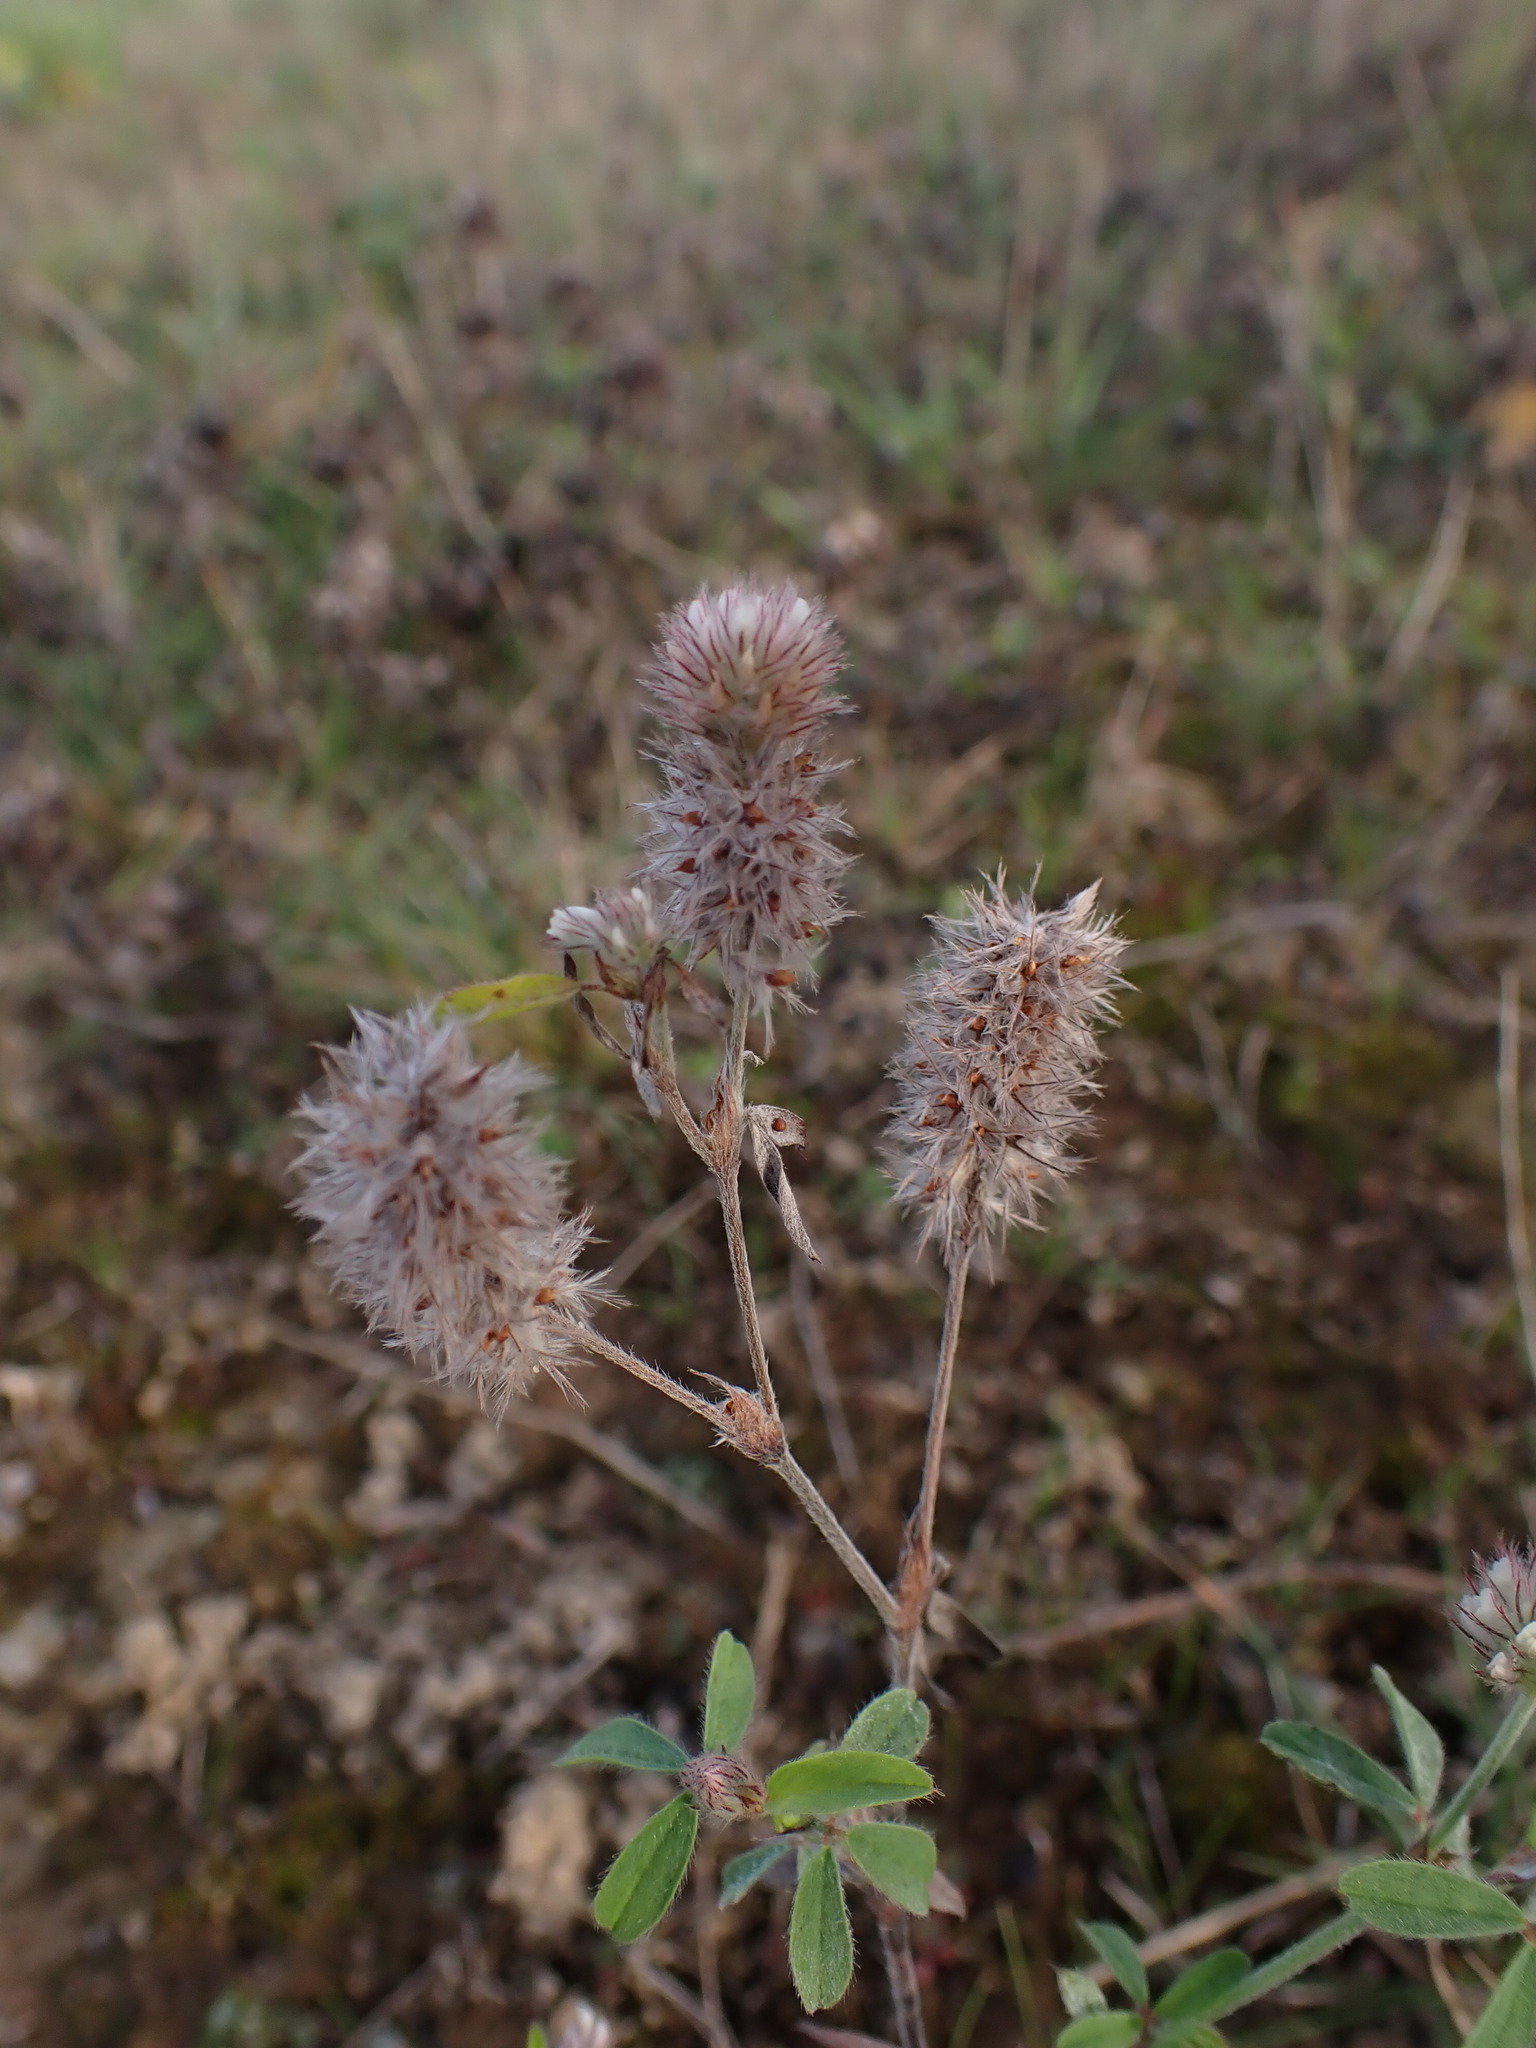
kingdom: Plantae
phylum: Tracheophyta
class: Magnoliopsida
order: Fabales
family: Fabaceae
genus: Trifolium
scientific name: Trifolium arvense
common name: Hare's-foot clover
